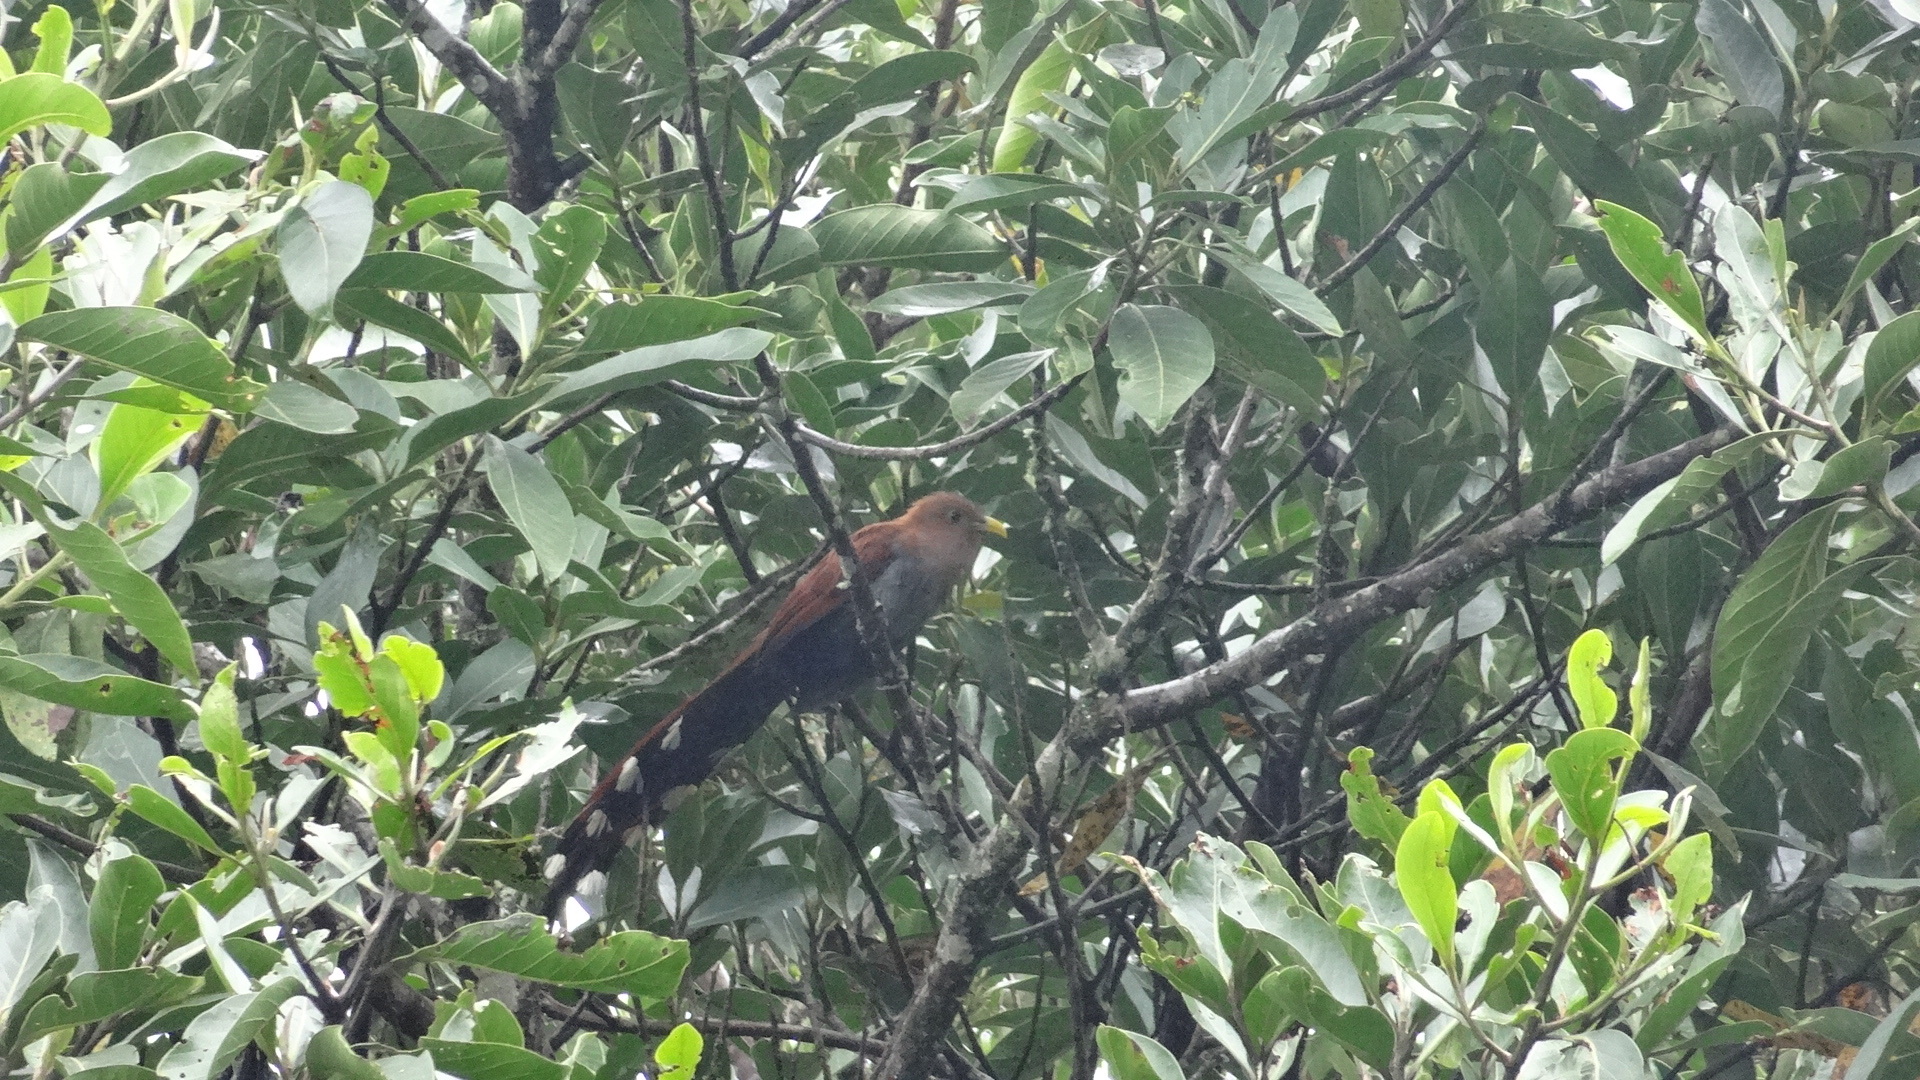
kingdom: Animalia
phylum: Chordata
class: Aves
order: Cuculiformes
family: Cuculidae
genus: Piaya
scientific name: Piaya cayana
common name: Squirrel cuckoo
